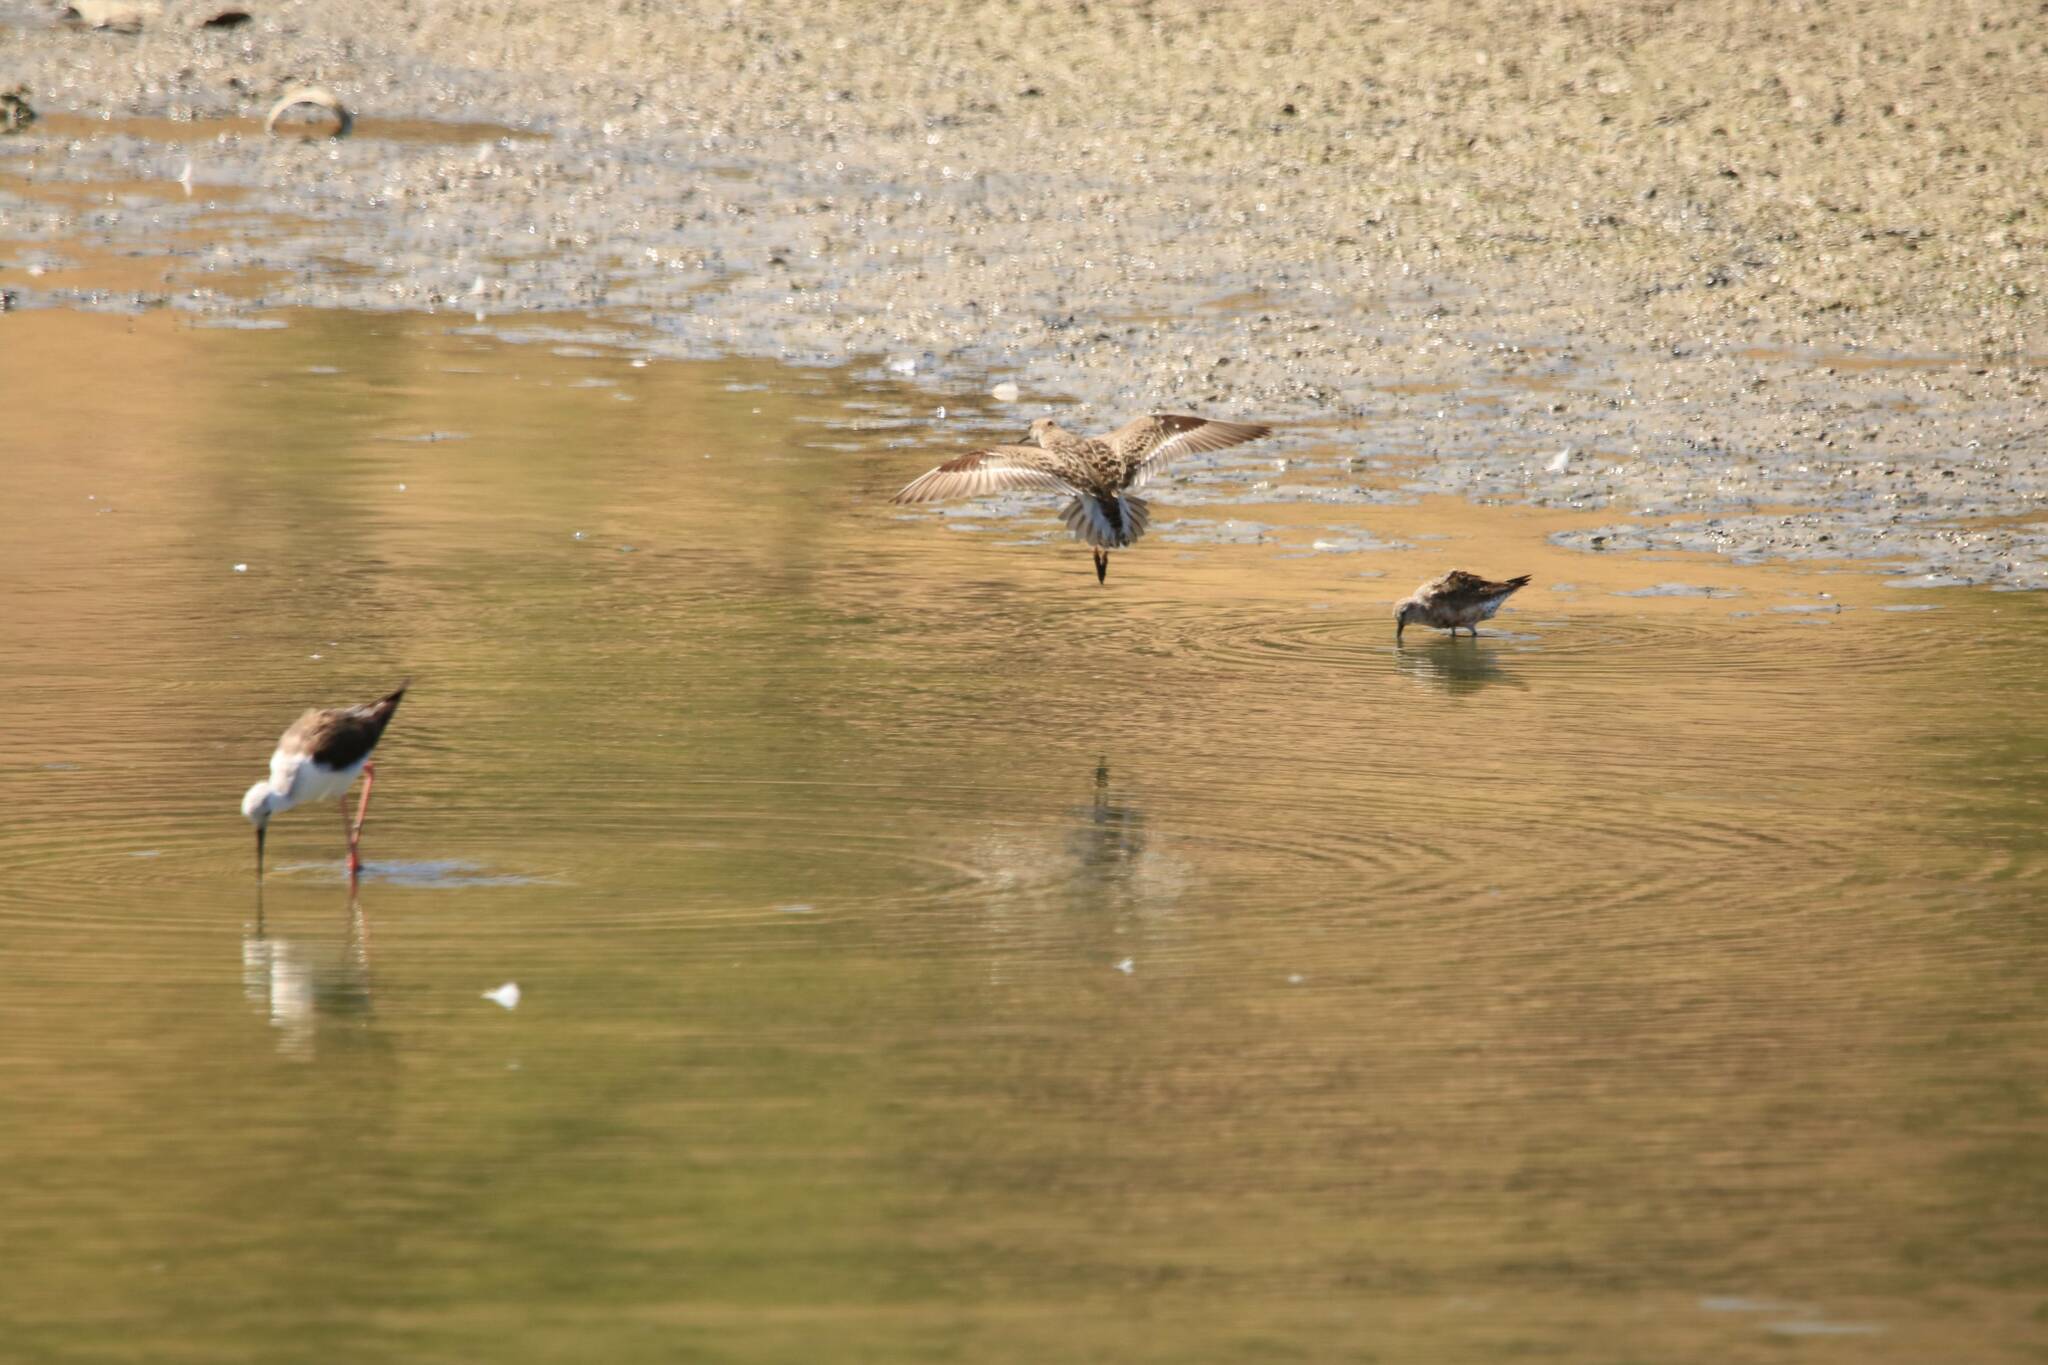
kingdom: Animalia
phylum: Chordata
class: Aves
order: Charadriiformes
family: Scolopacidae
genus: Calidris
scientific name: Calidris ferruginea
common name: Curlew sandpiper
